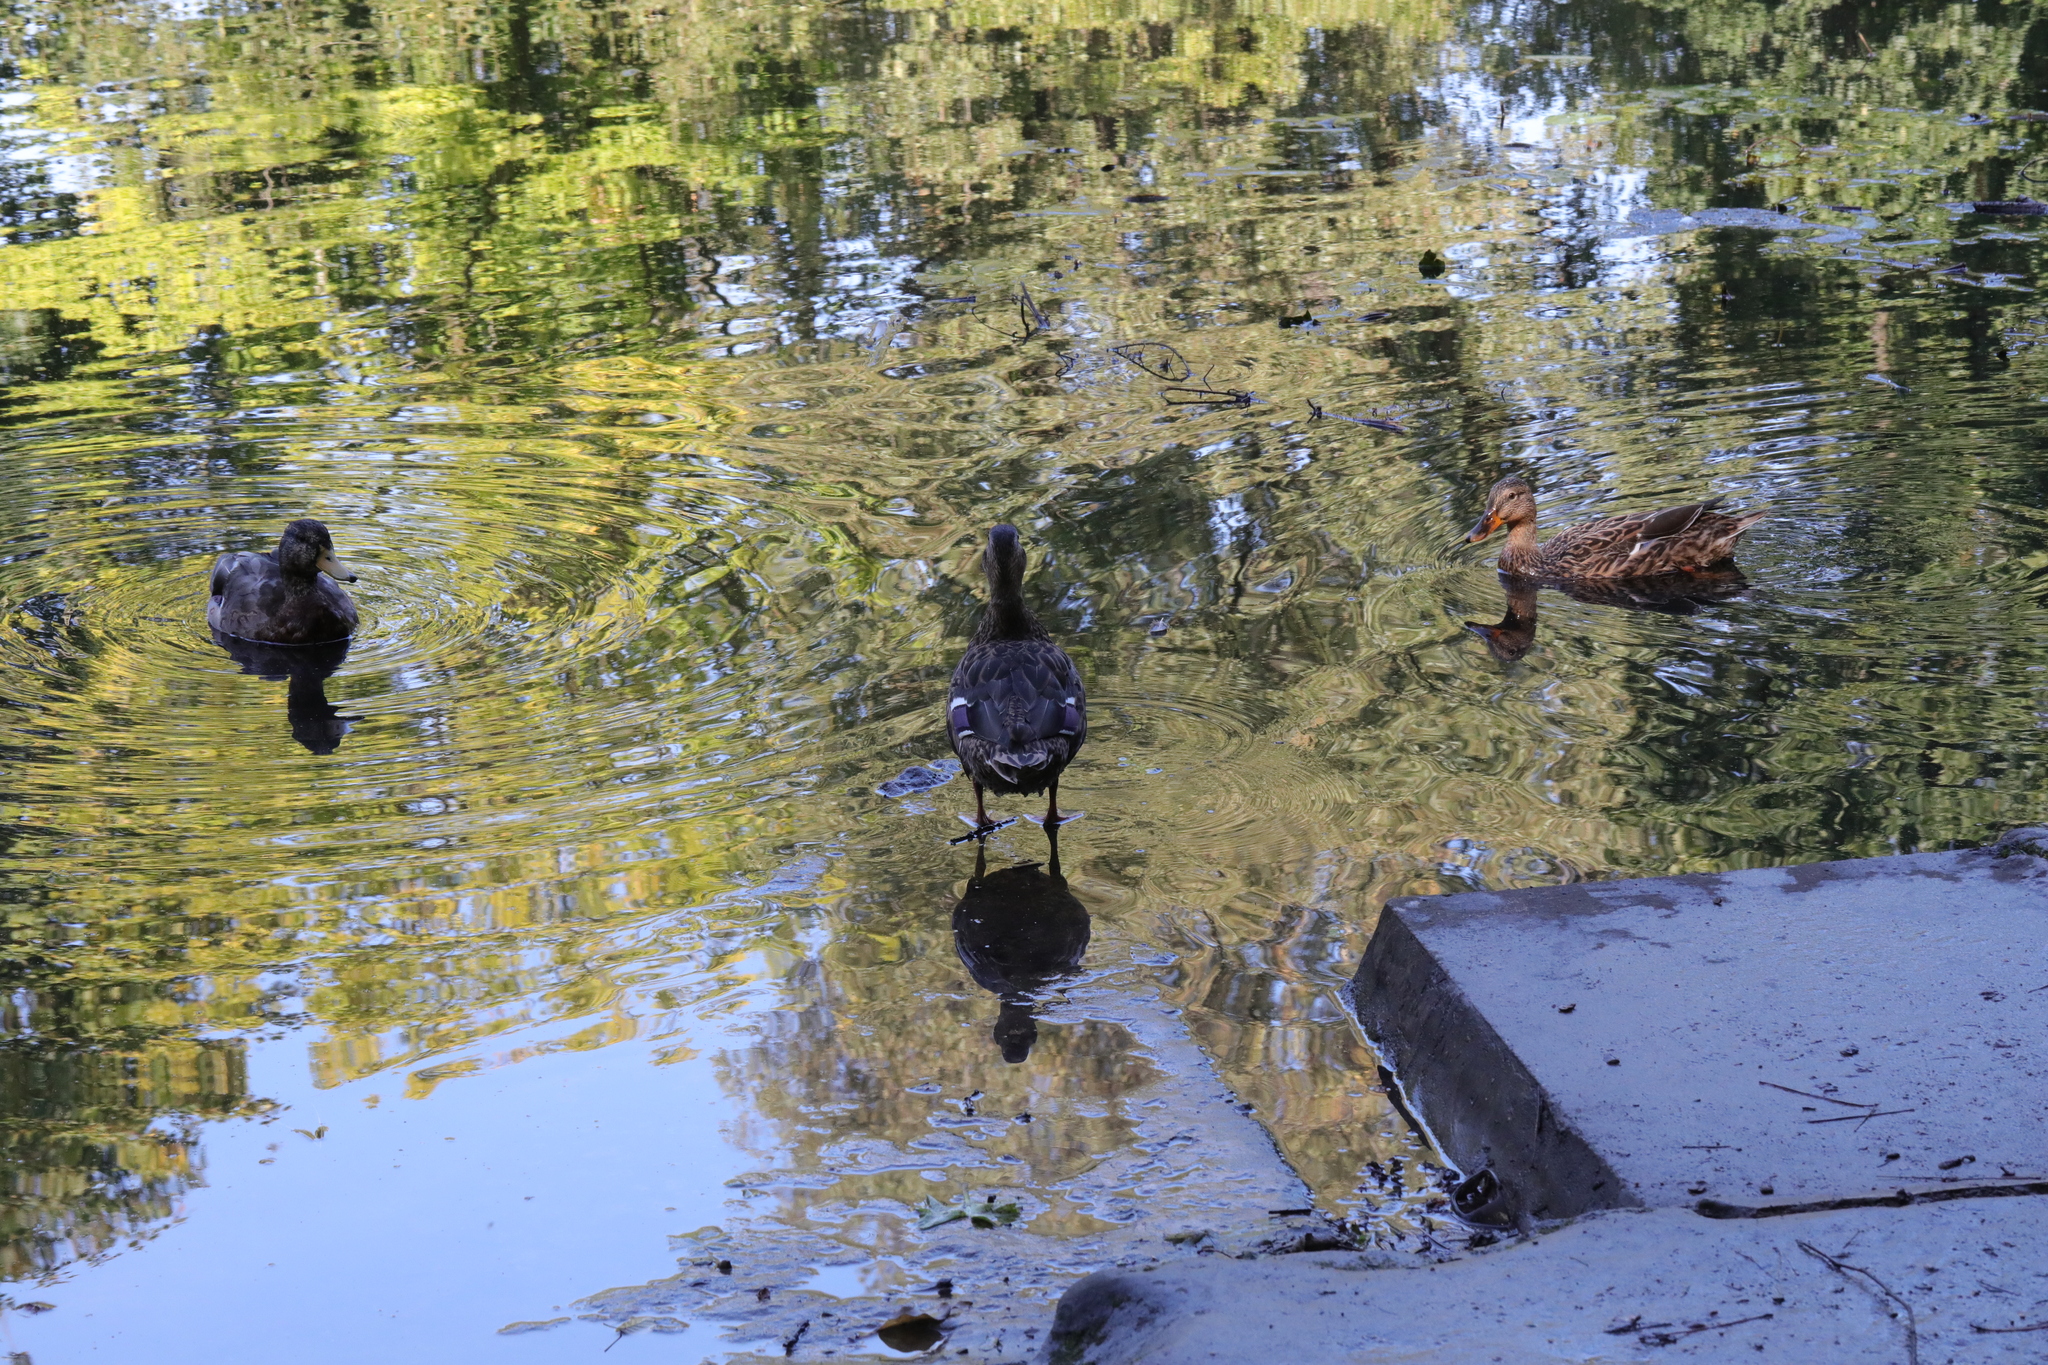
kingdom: Animalia
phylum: Chordata
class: Aves
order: Anseriformes
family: Anatidae
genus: Anas
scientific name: Anas platyrhynchos
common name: Mallard
